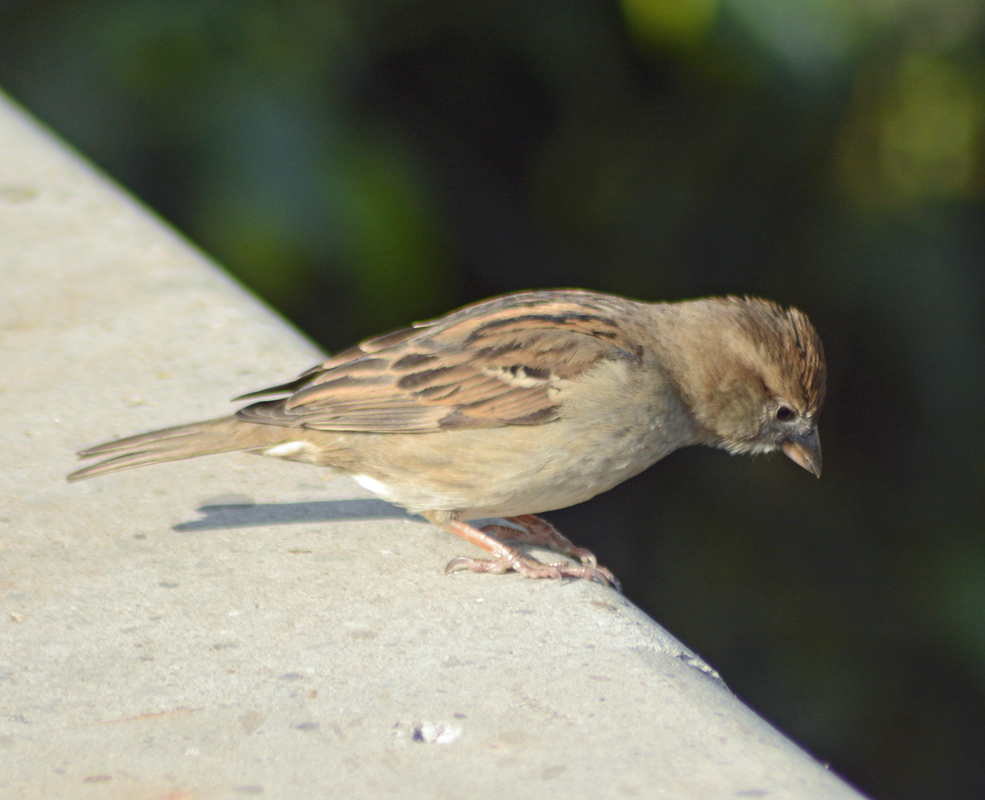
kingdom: Animalia
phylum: Chordata
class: Aves
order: Passeriformes
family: Passeridae
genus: Passer
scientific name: Passer domesticus
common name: House sparrow
